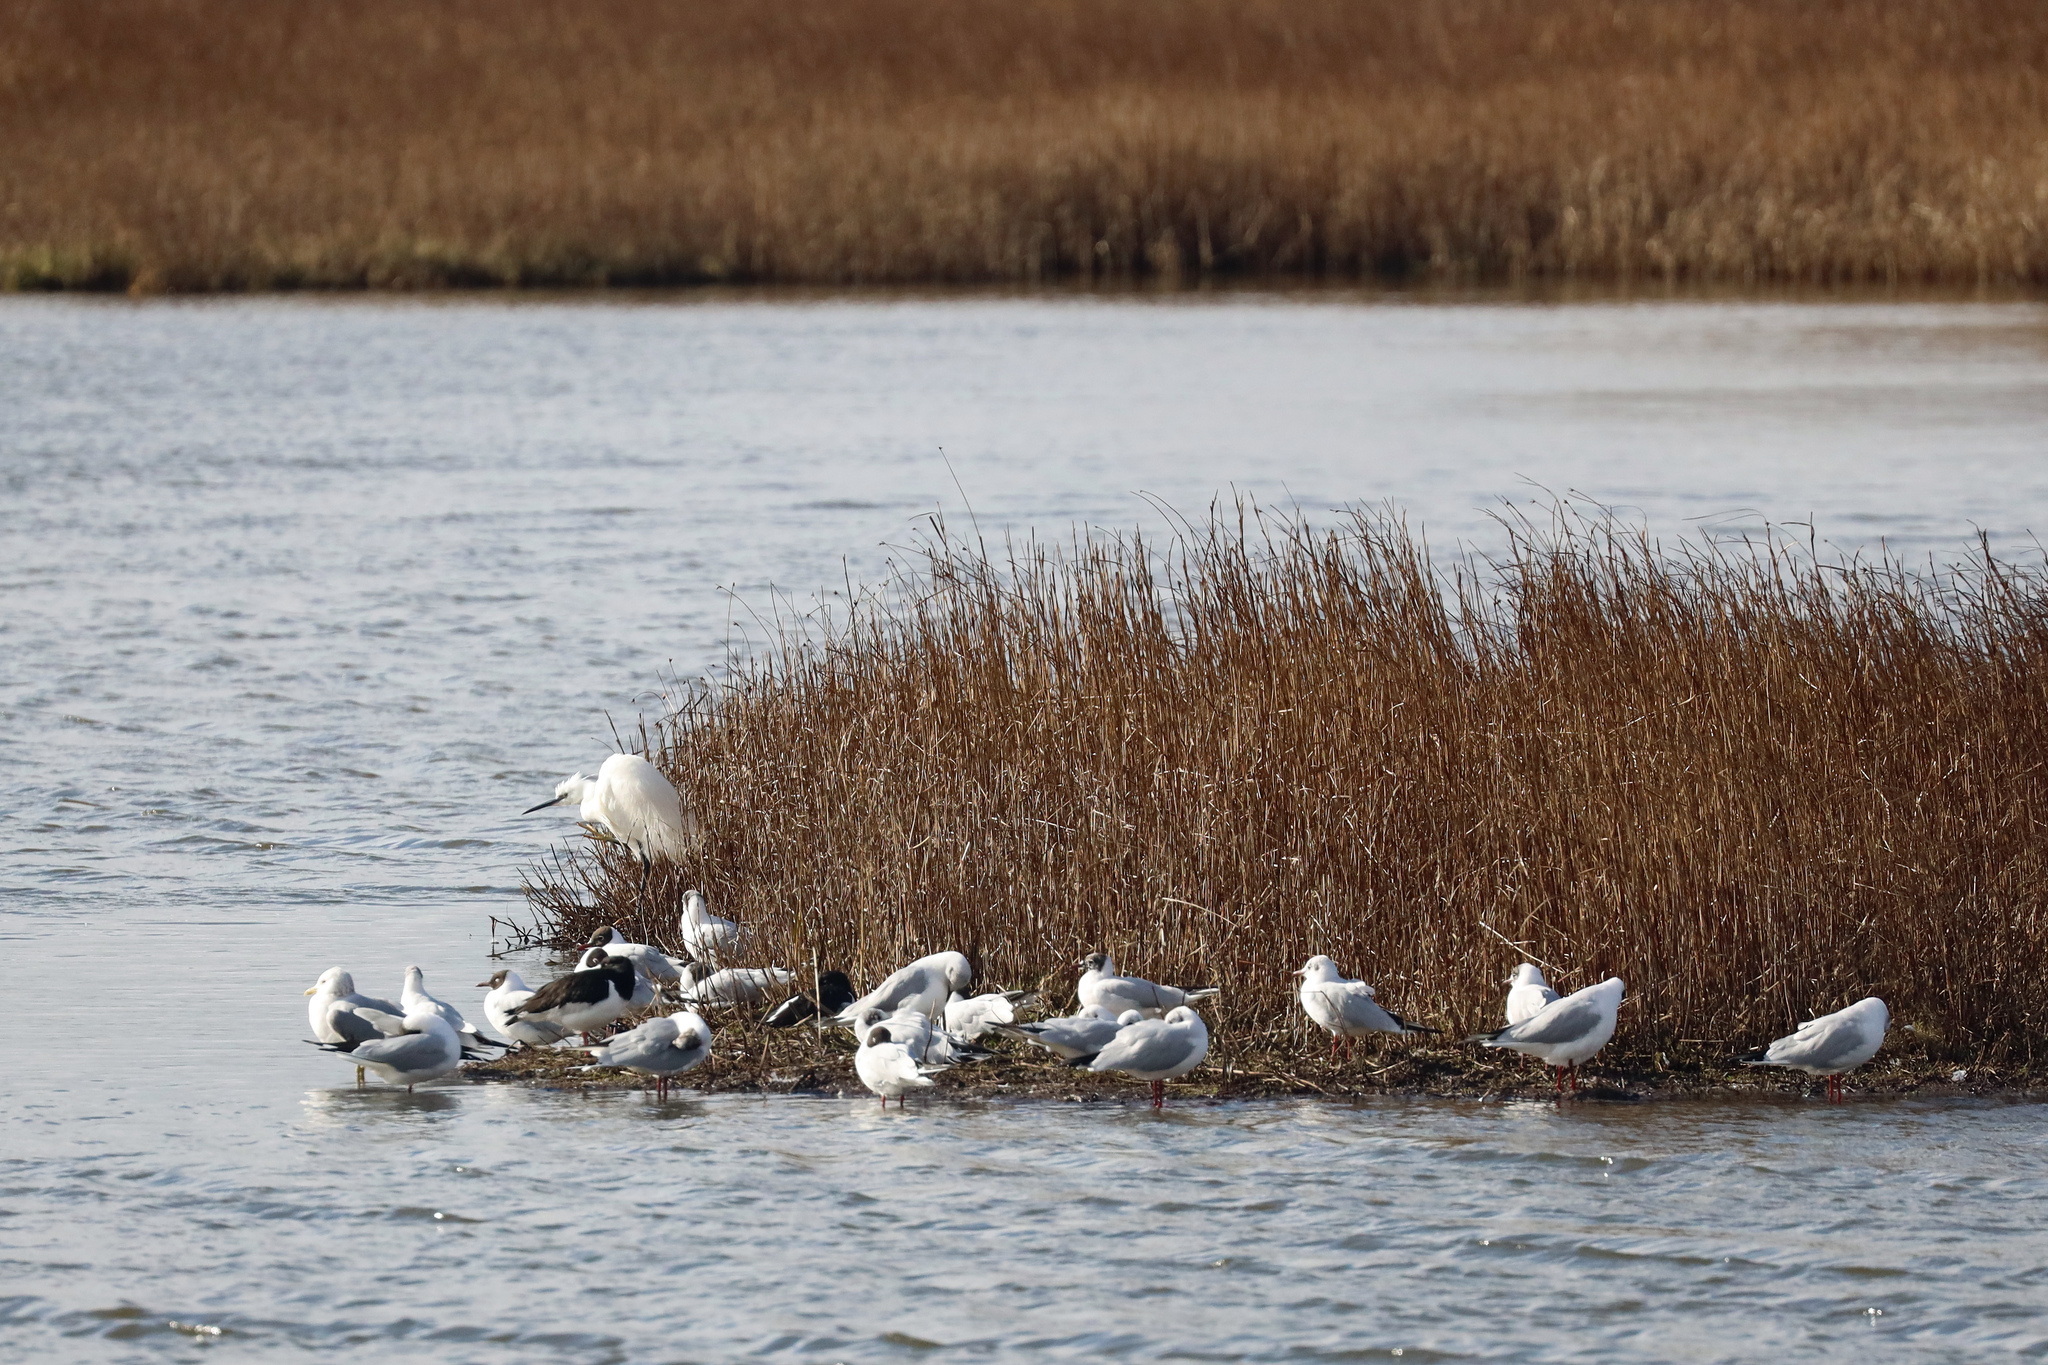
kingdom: Animalia
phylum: Chordata
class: Aves
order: Charadriiformes
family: Laridae
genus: Chroicocephalus
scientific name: Chroicocephalus ridibundus
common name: Black-headed gull
